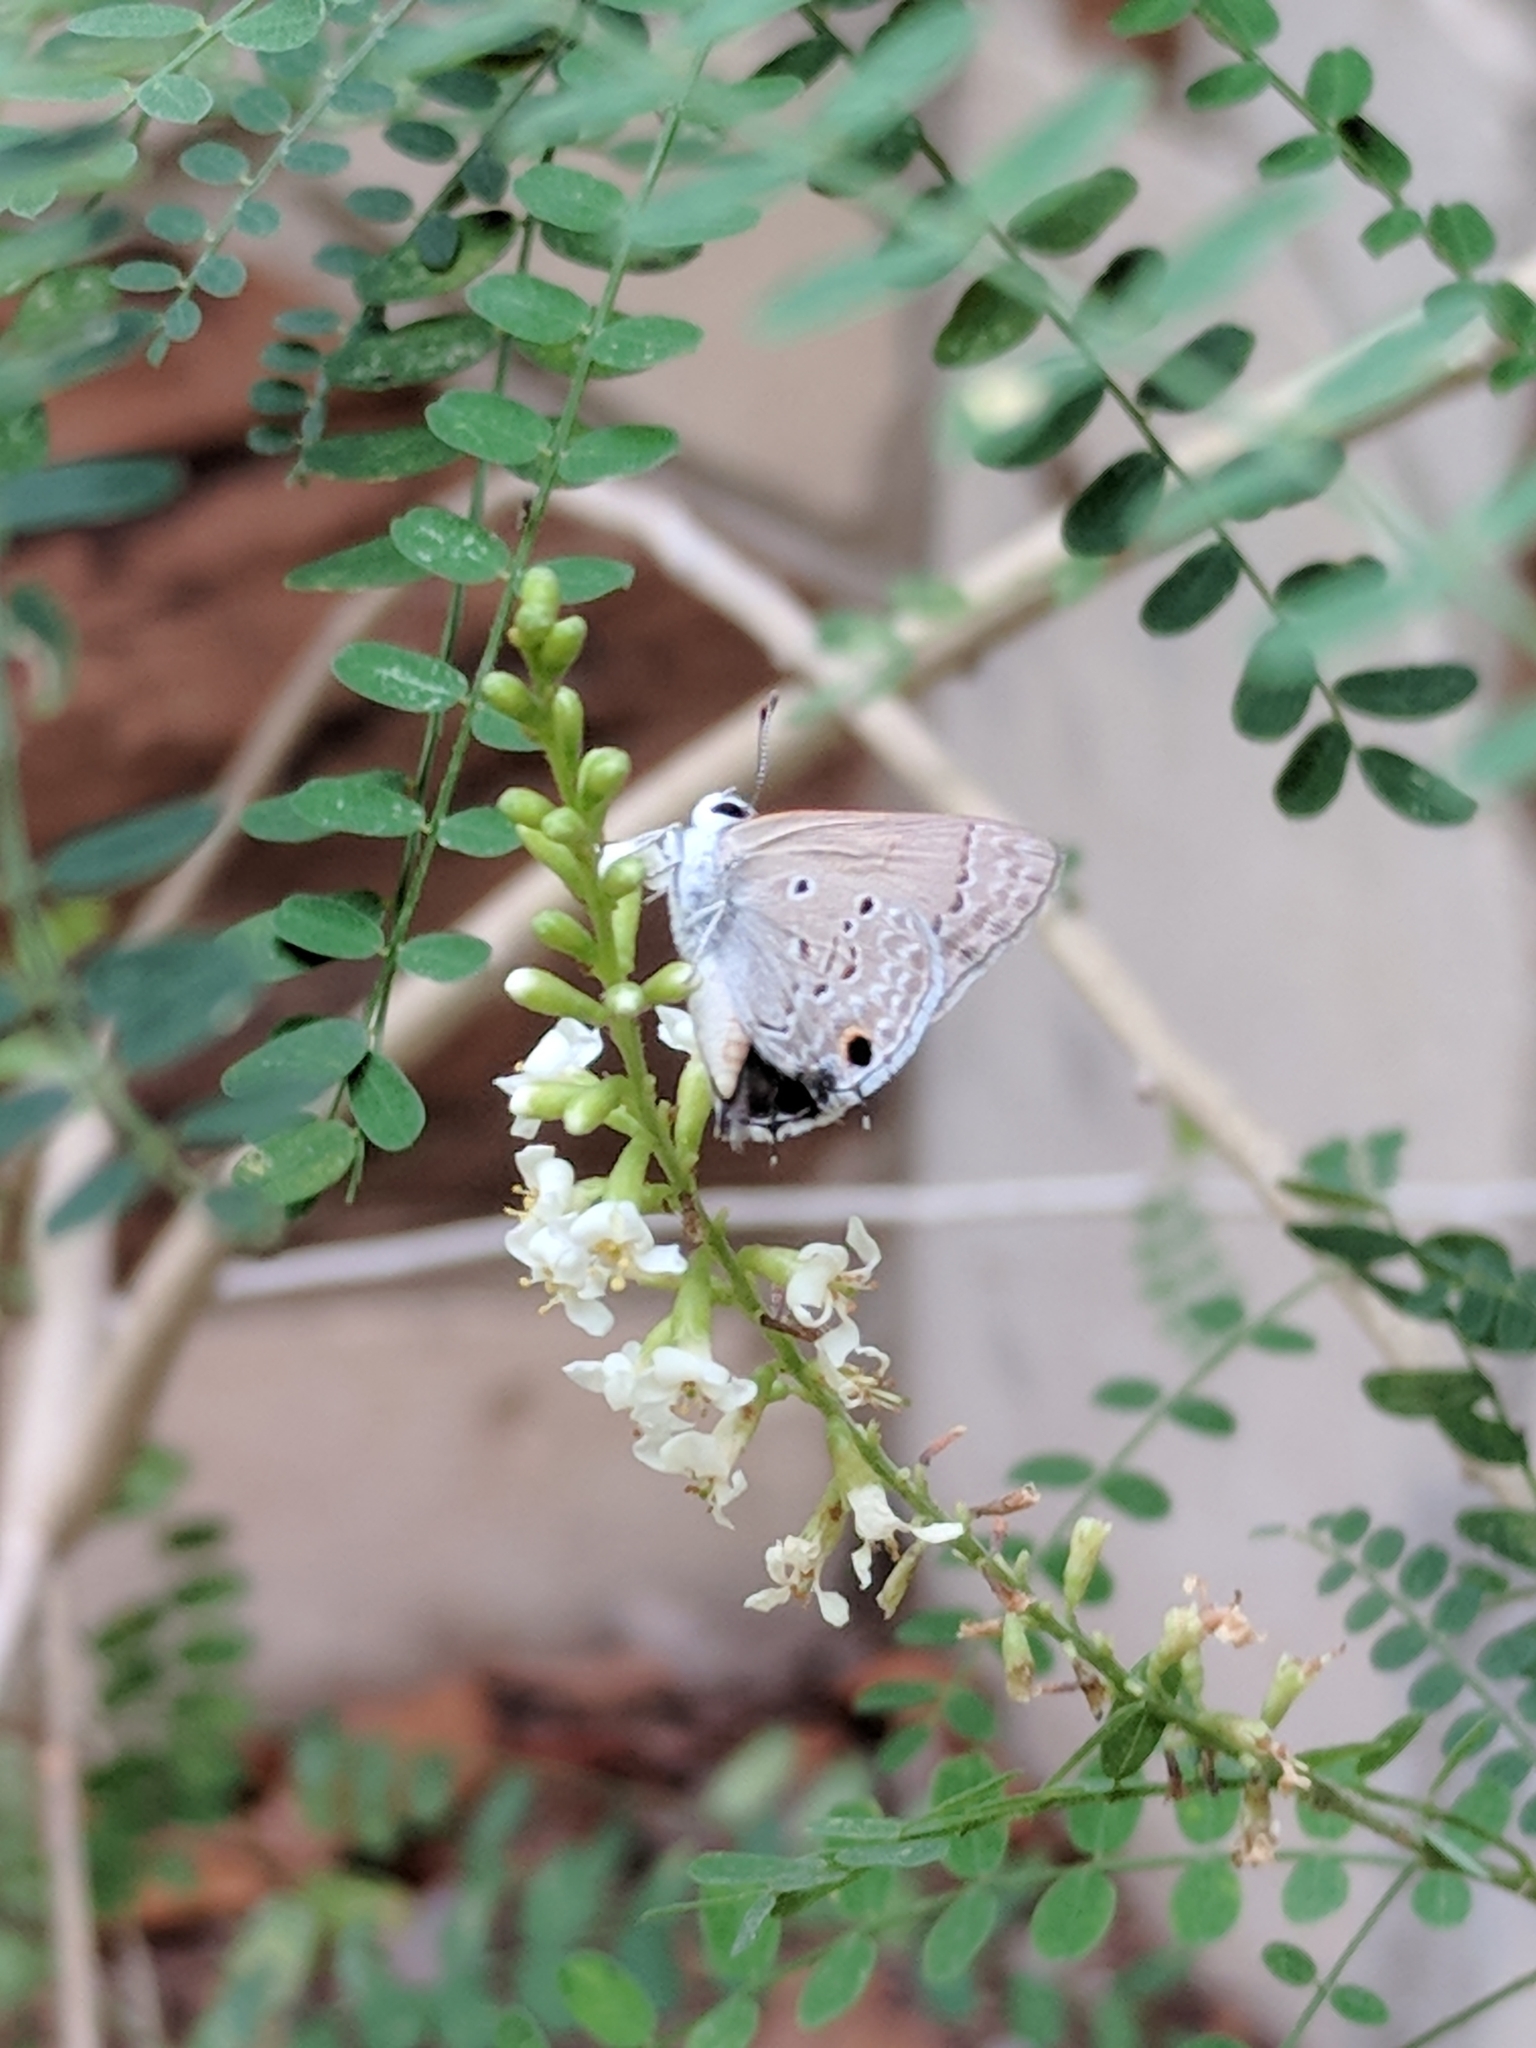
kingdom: Animalia
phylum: Arthropoda
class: Insecta
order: Lepidoptera
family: Lycaenidae
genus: Callicista
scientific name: Callicista columella
